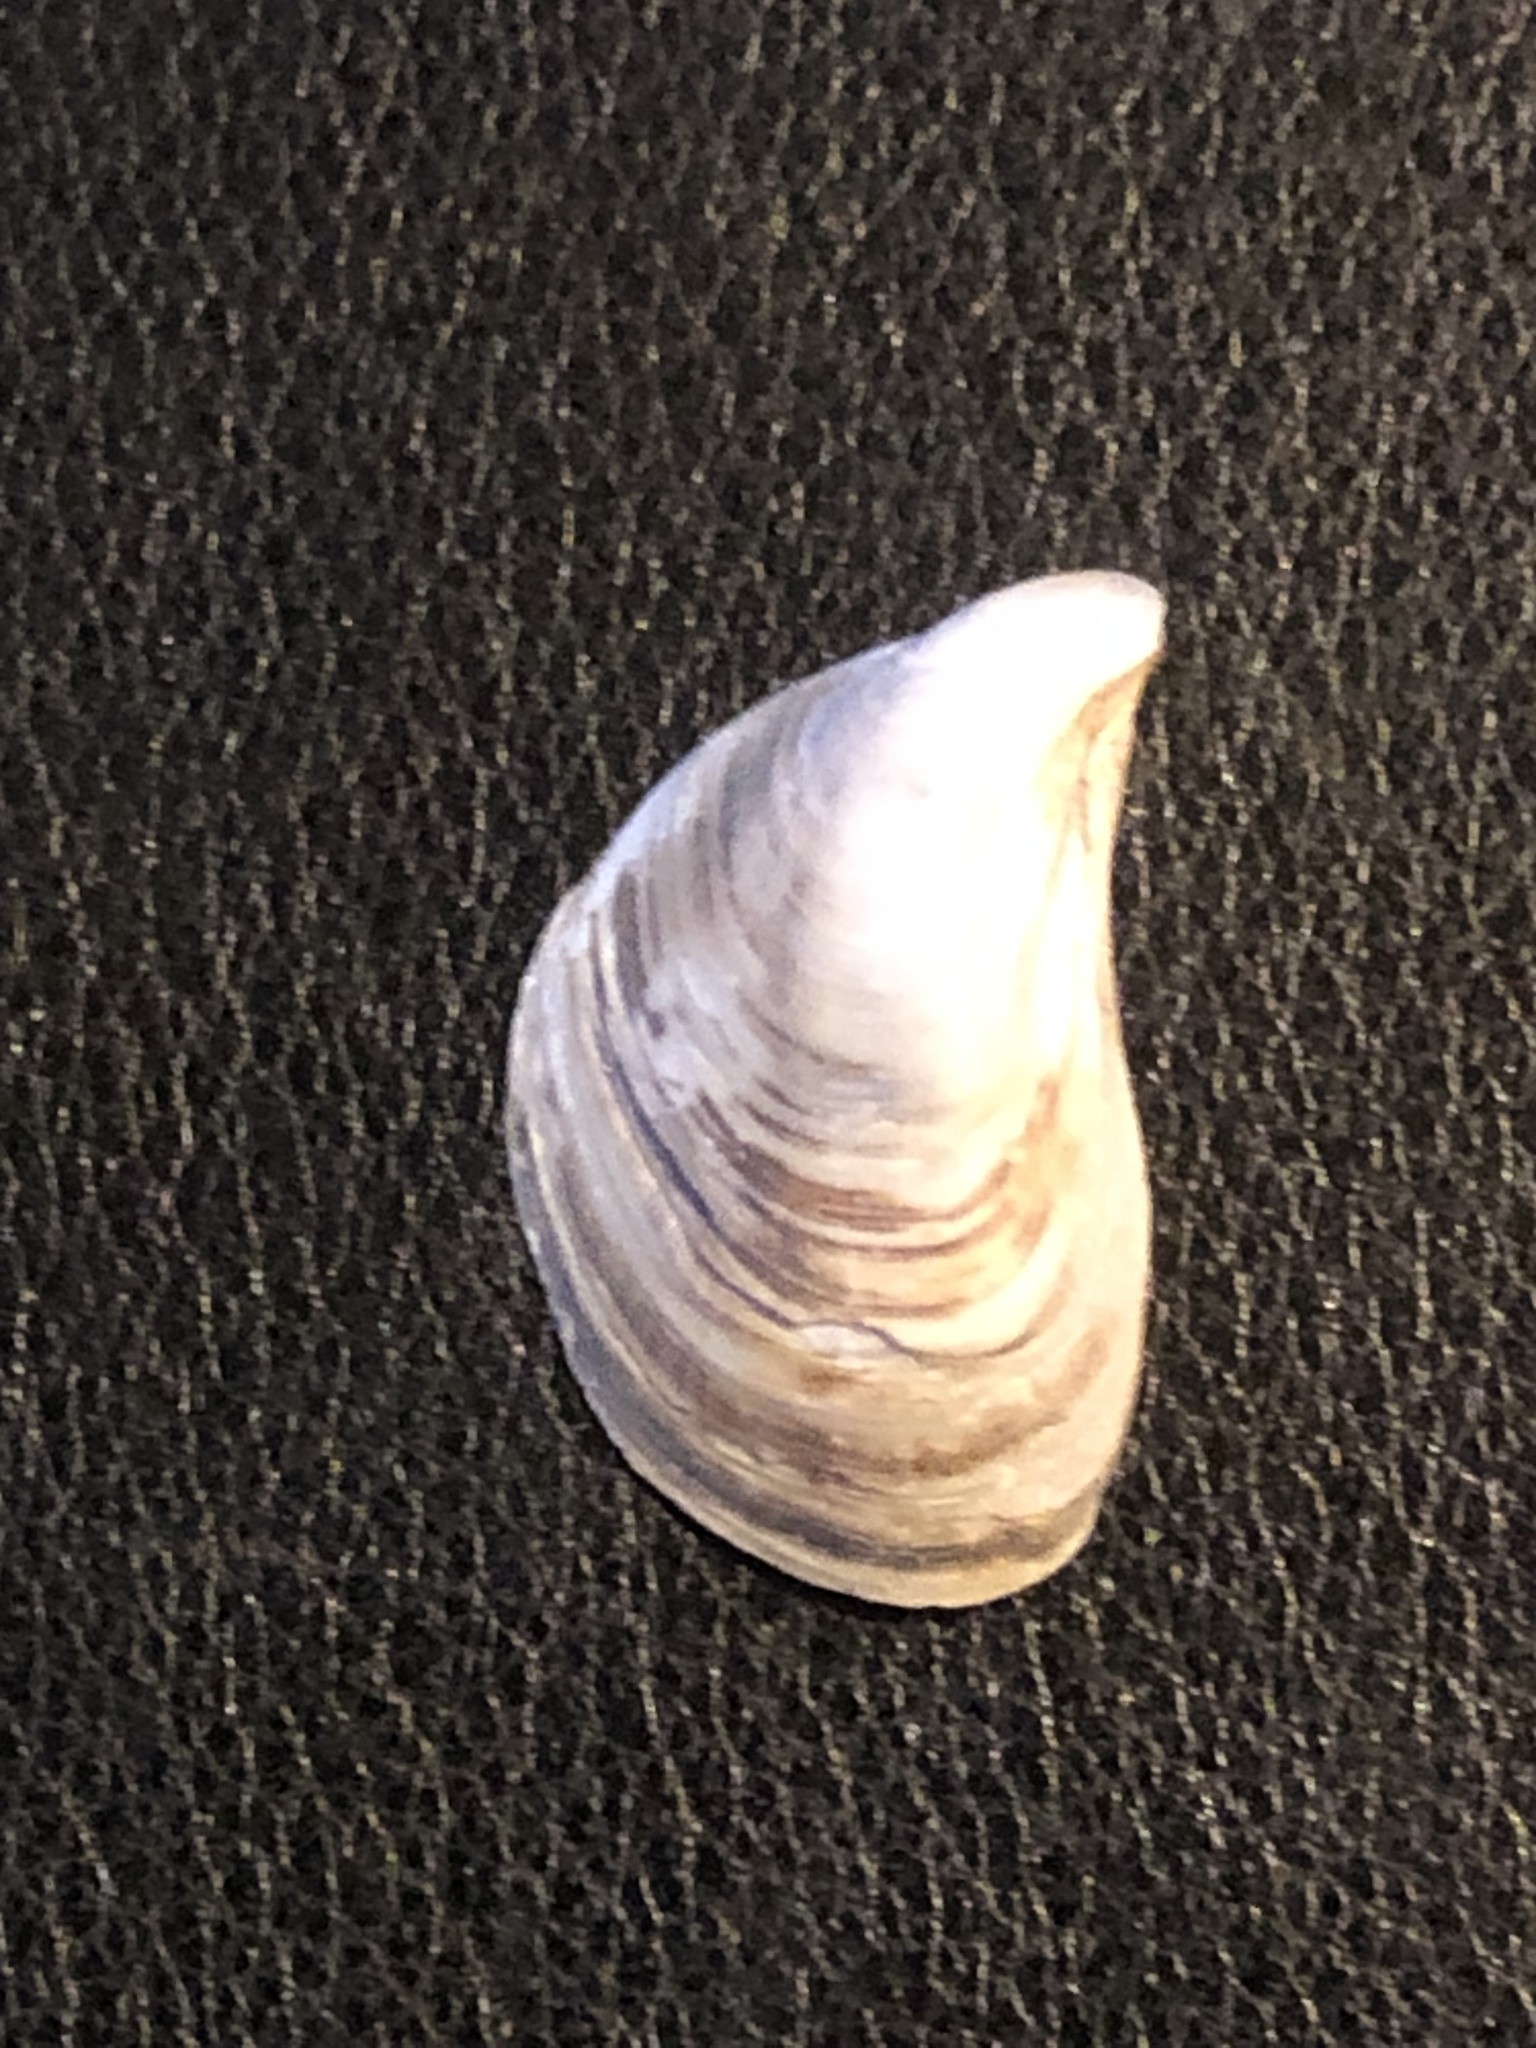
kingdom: Animalia
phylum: Mollusca
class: Bivalvia
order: Myida
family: Dreissenidae
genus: Dreissena
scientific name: Dreissena bugensis
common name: Quagga mussel
